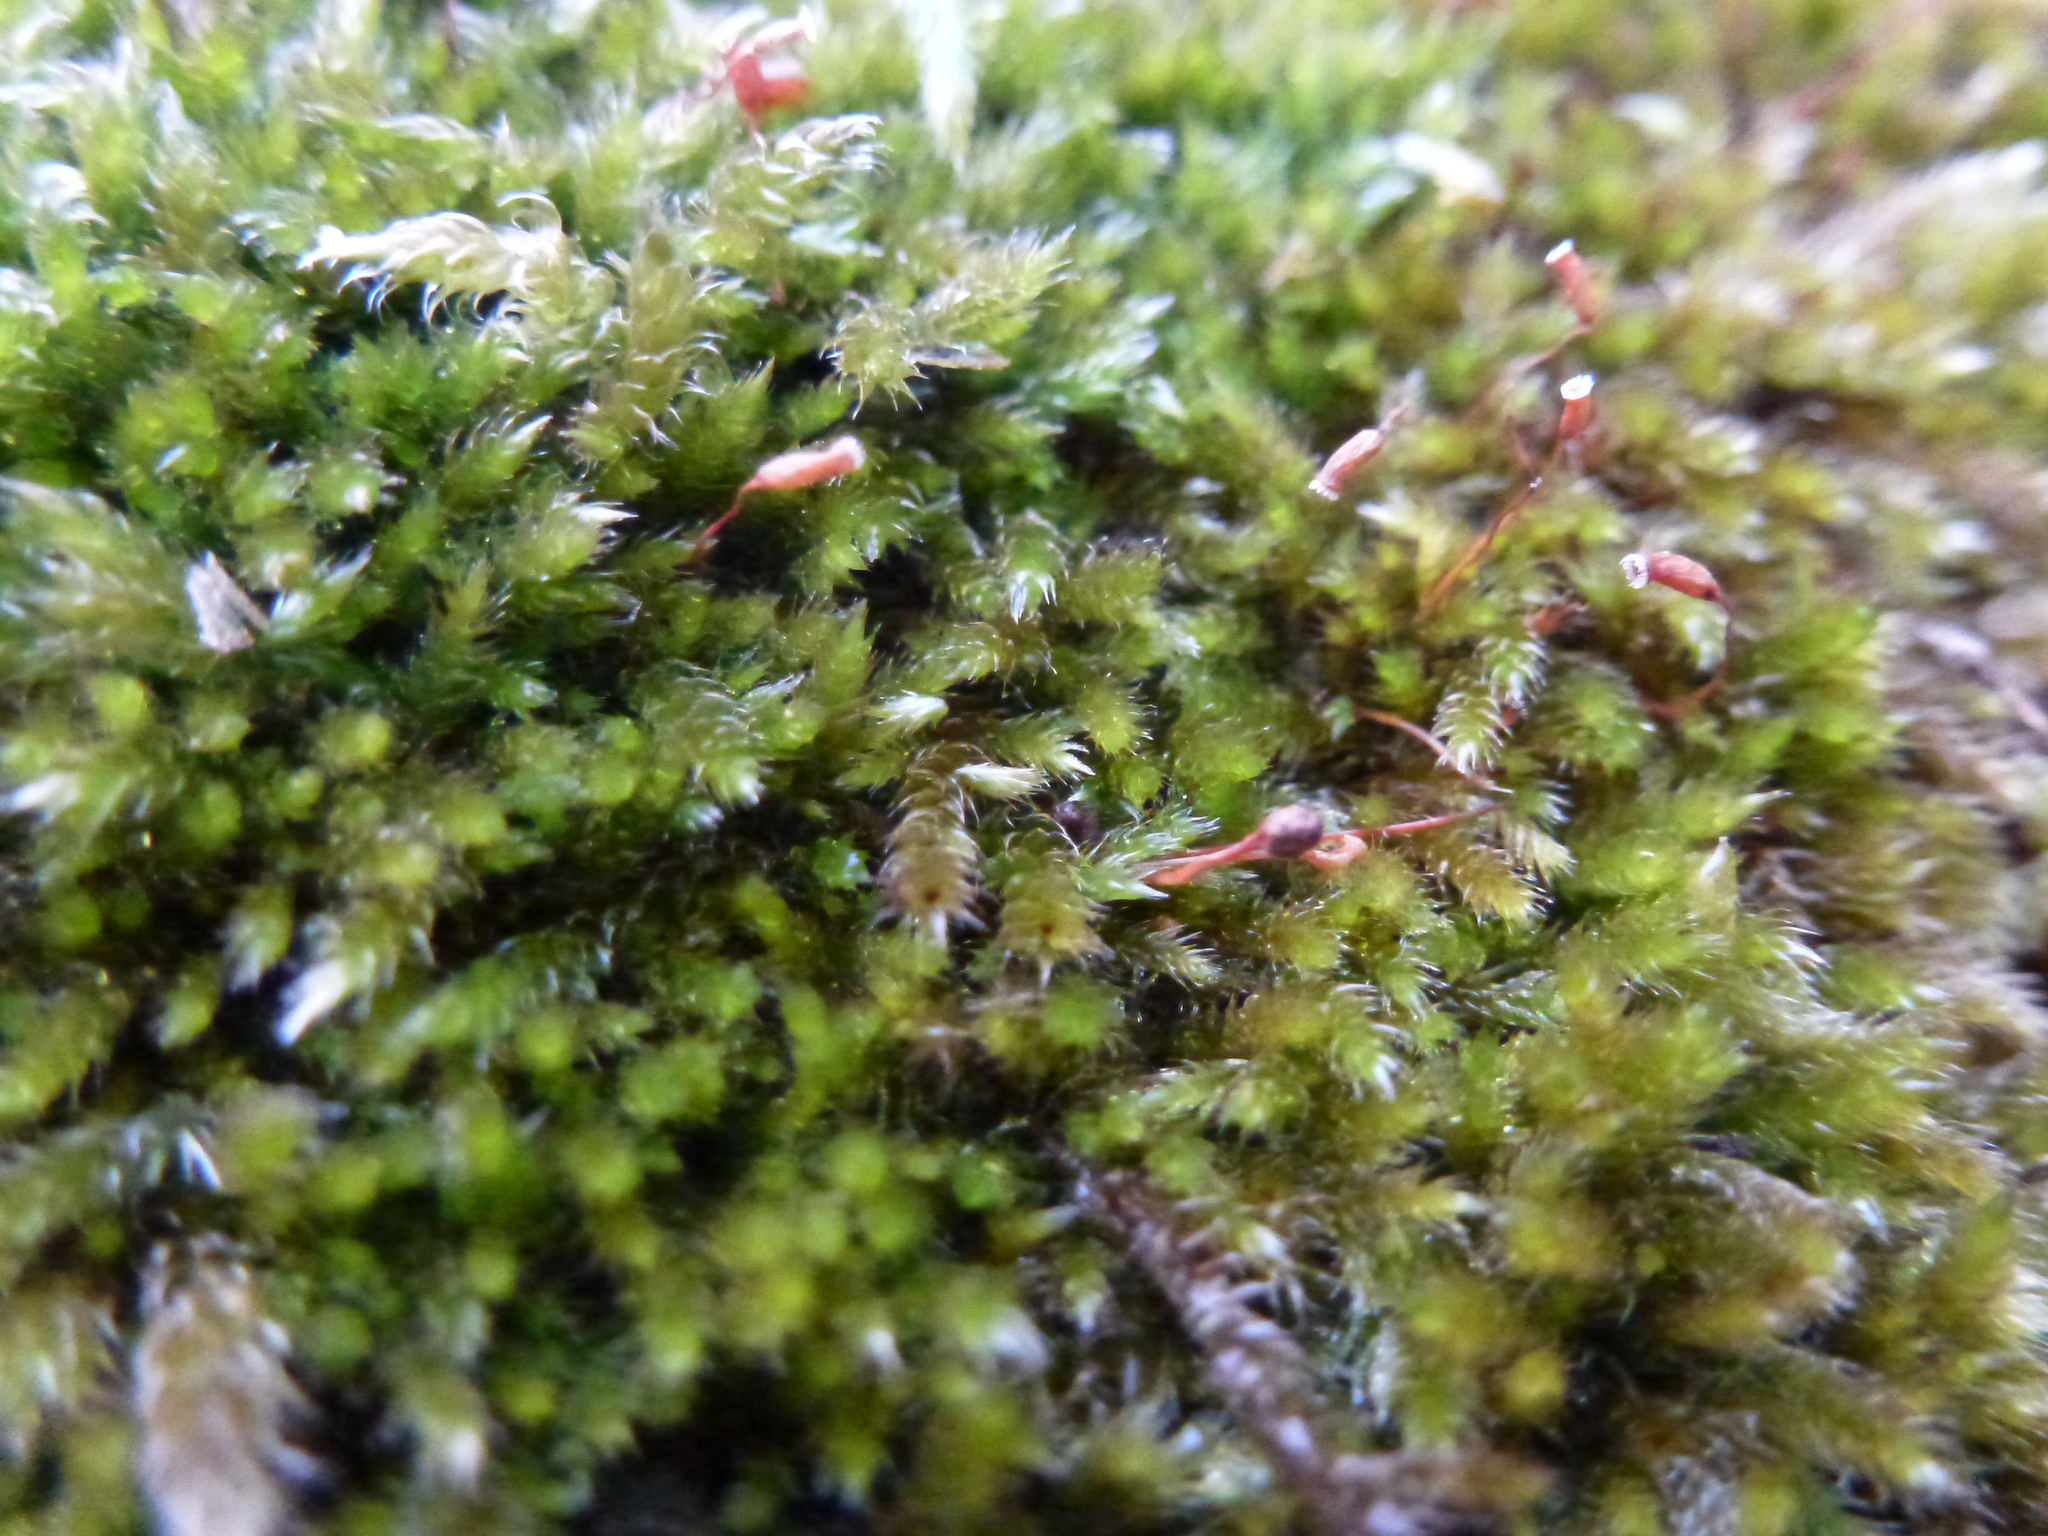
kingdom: Plantae
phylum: Bryophyta
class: Bryopsida
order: Hypnales
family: Brachytheciaceae
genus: Homalothecium
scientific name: Homalothecium sericeum
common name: Silky wall feather-moss
